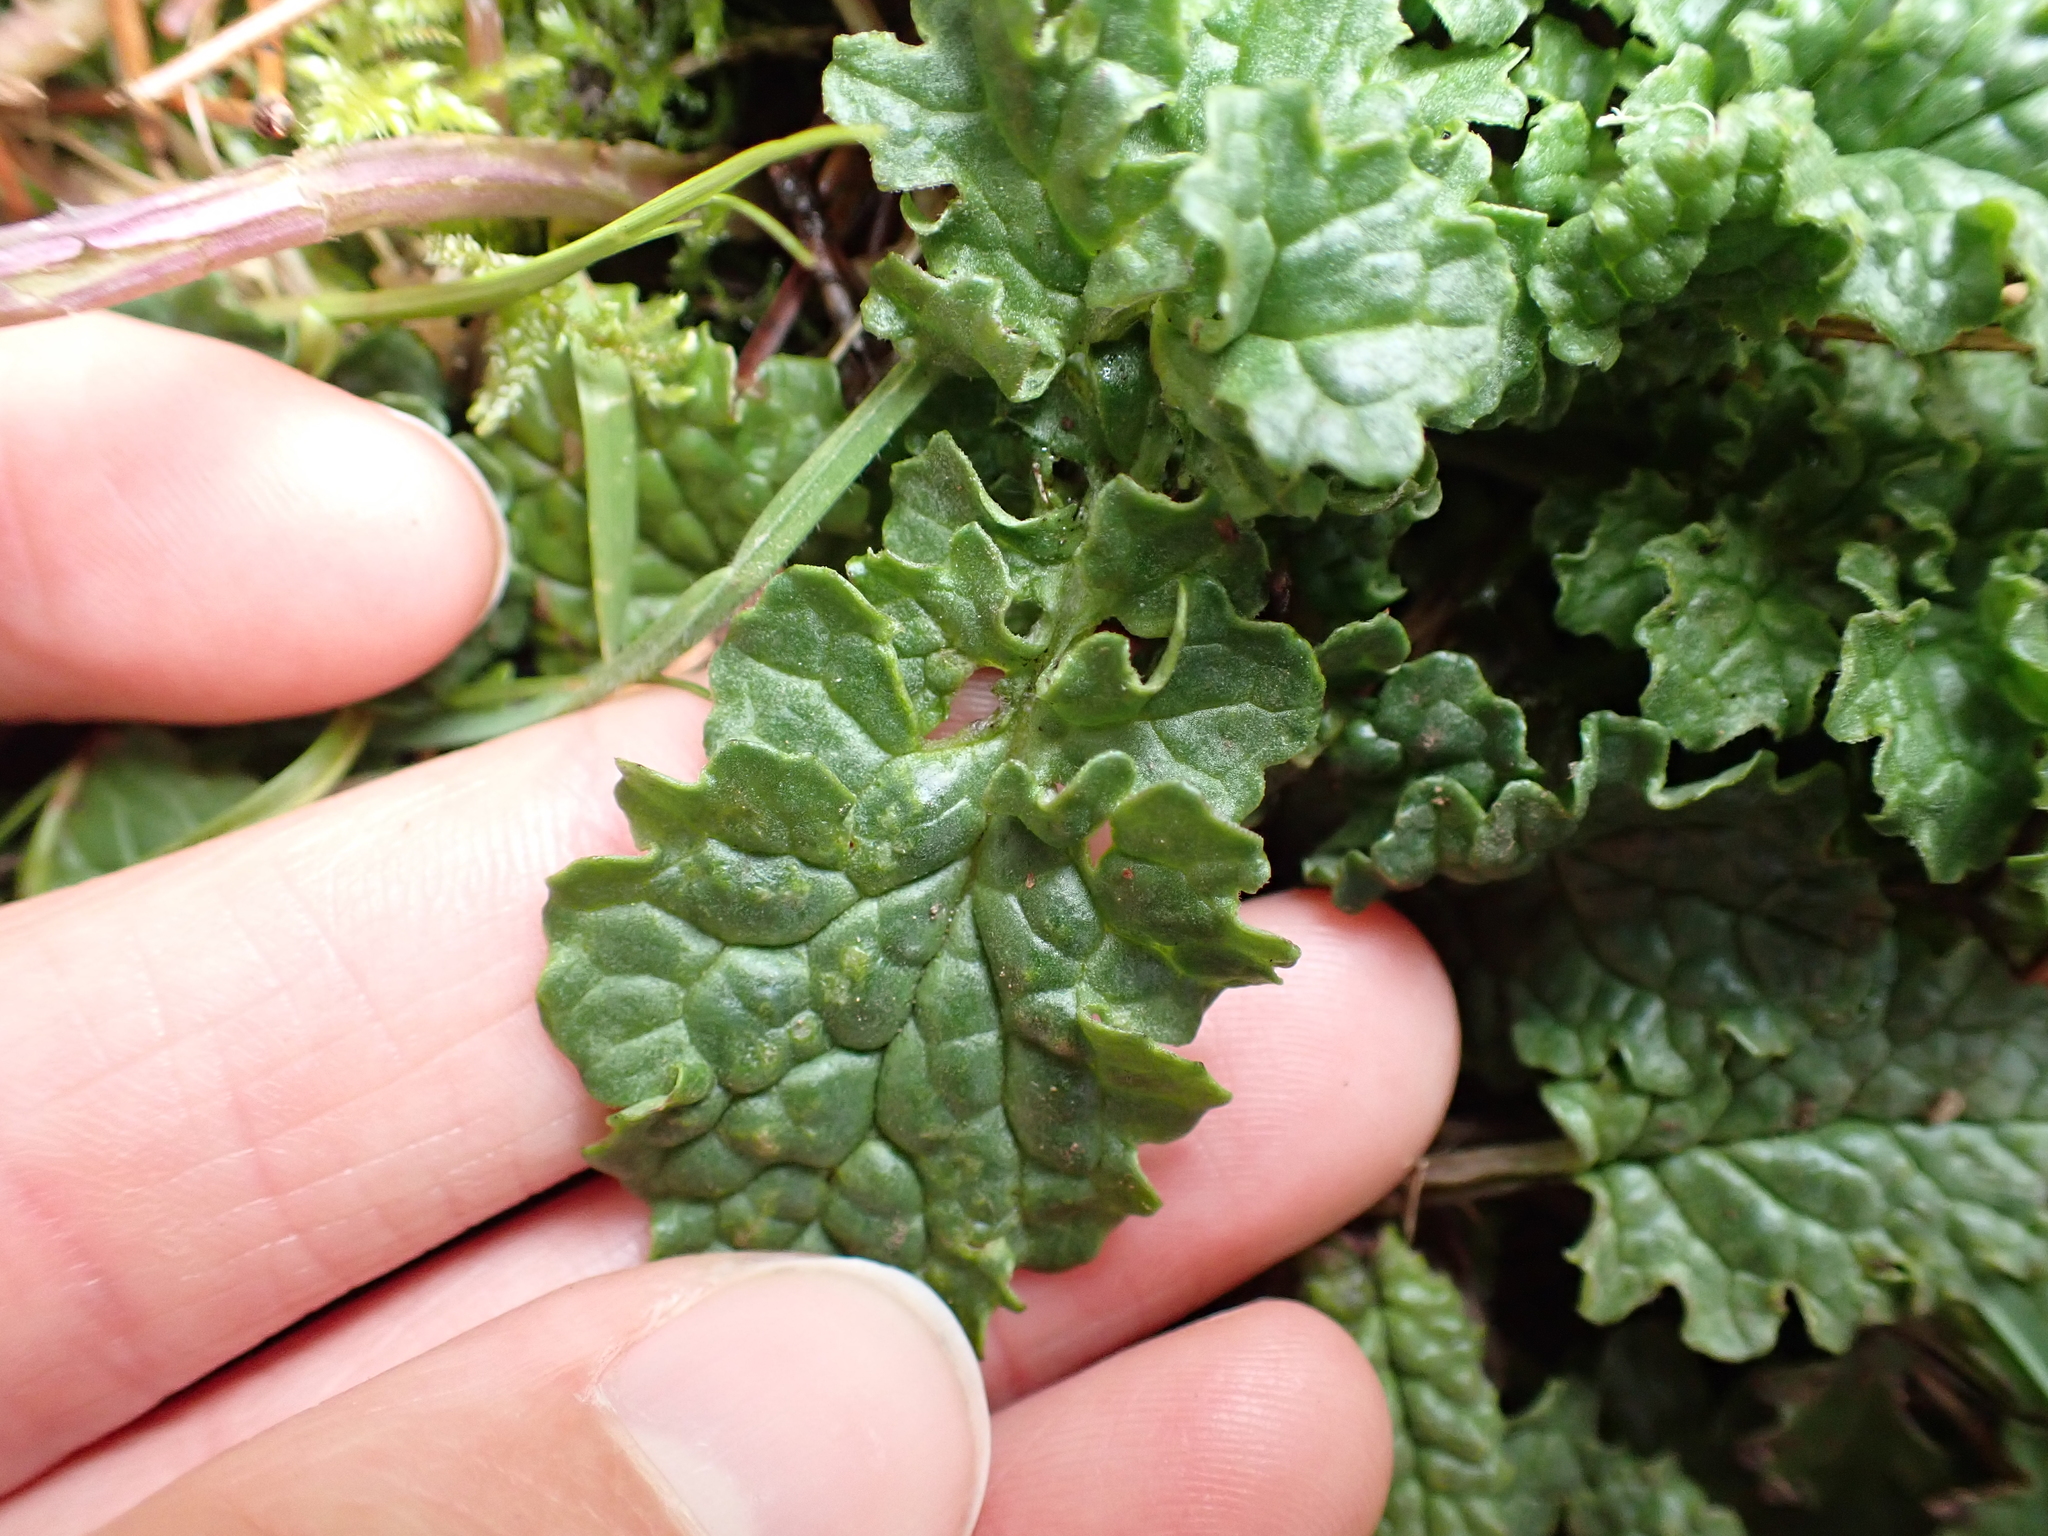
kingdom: Plantae
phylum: Tracheophyta
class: Magnoliopsida
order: Asterales
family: Asteraceae
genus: Jacobaea
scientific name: Jacobaea vulgaris
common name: Stinking willie
